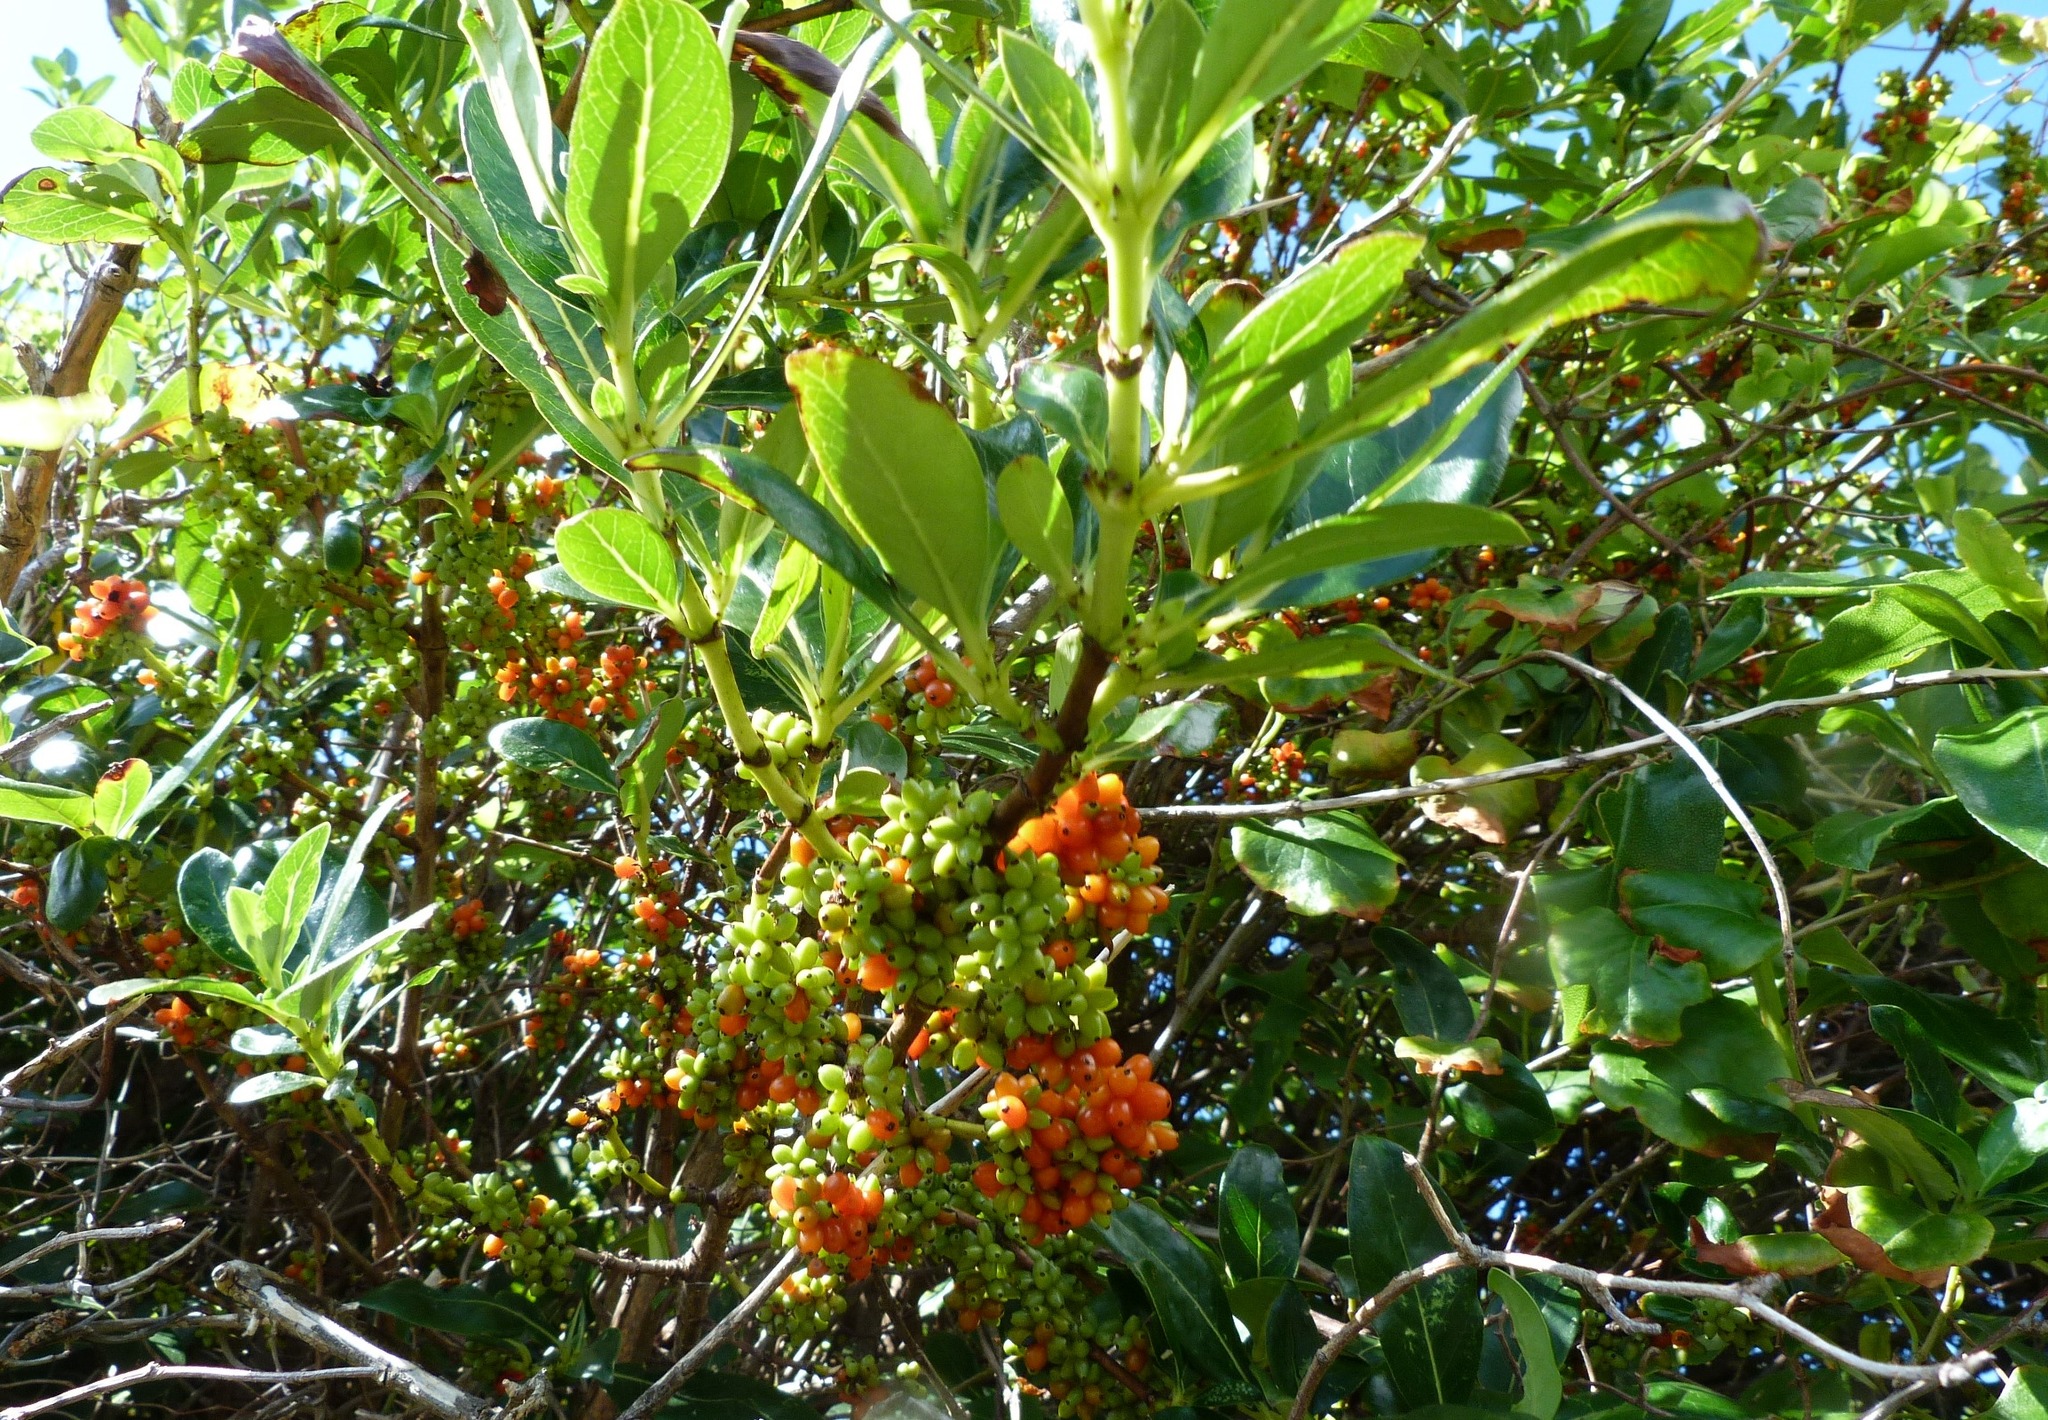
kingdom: Plantae
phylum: Tracheophyta
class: Magnoliopsida
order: Gentianales
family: Rubiaceae
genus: Coprosma
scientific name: Coprosma robusta
